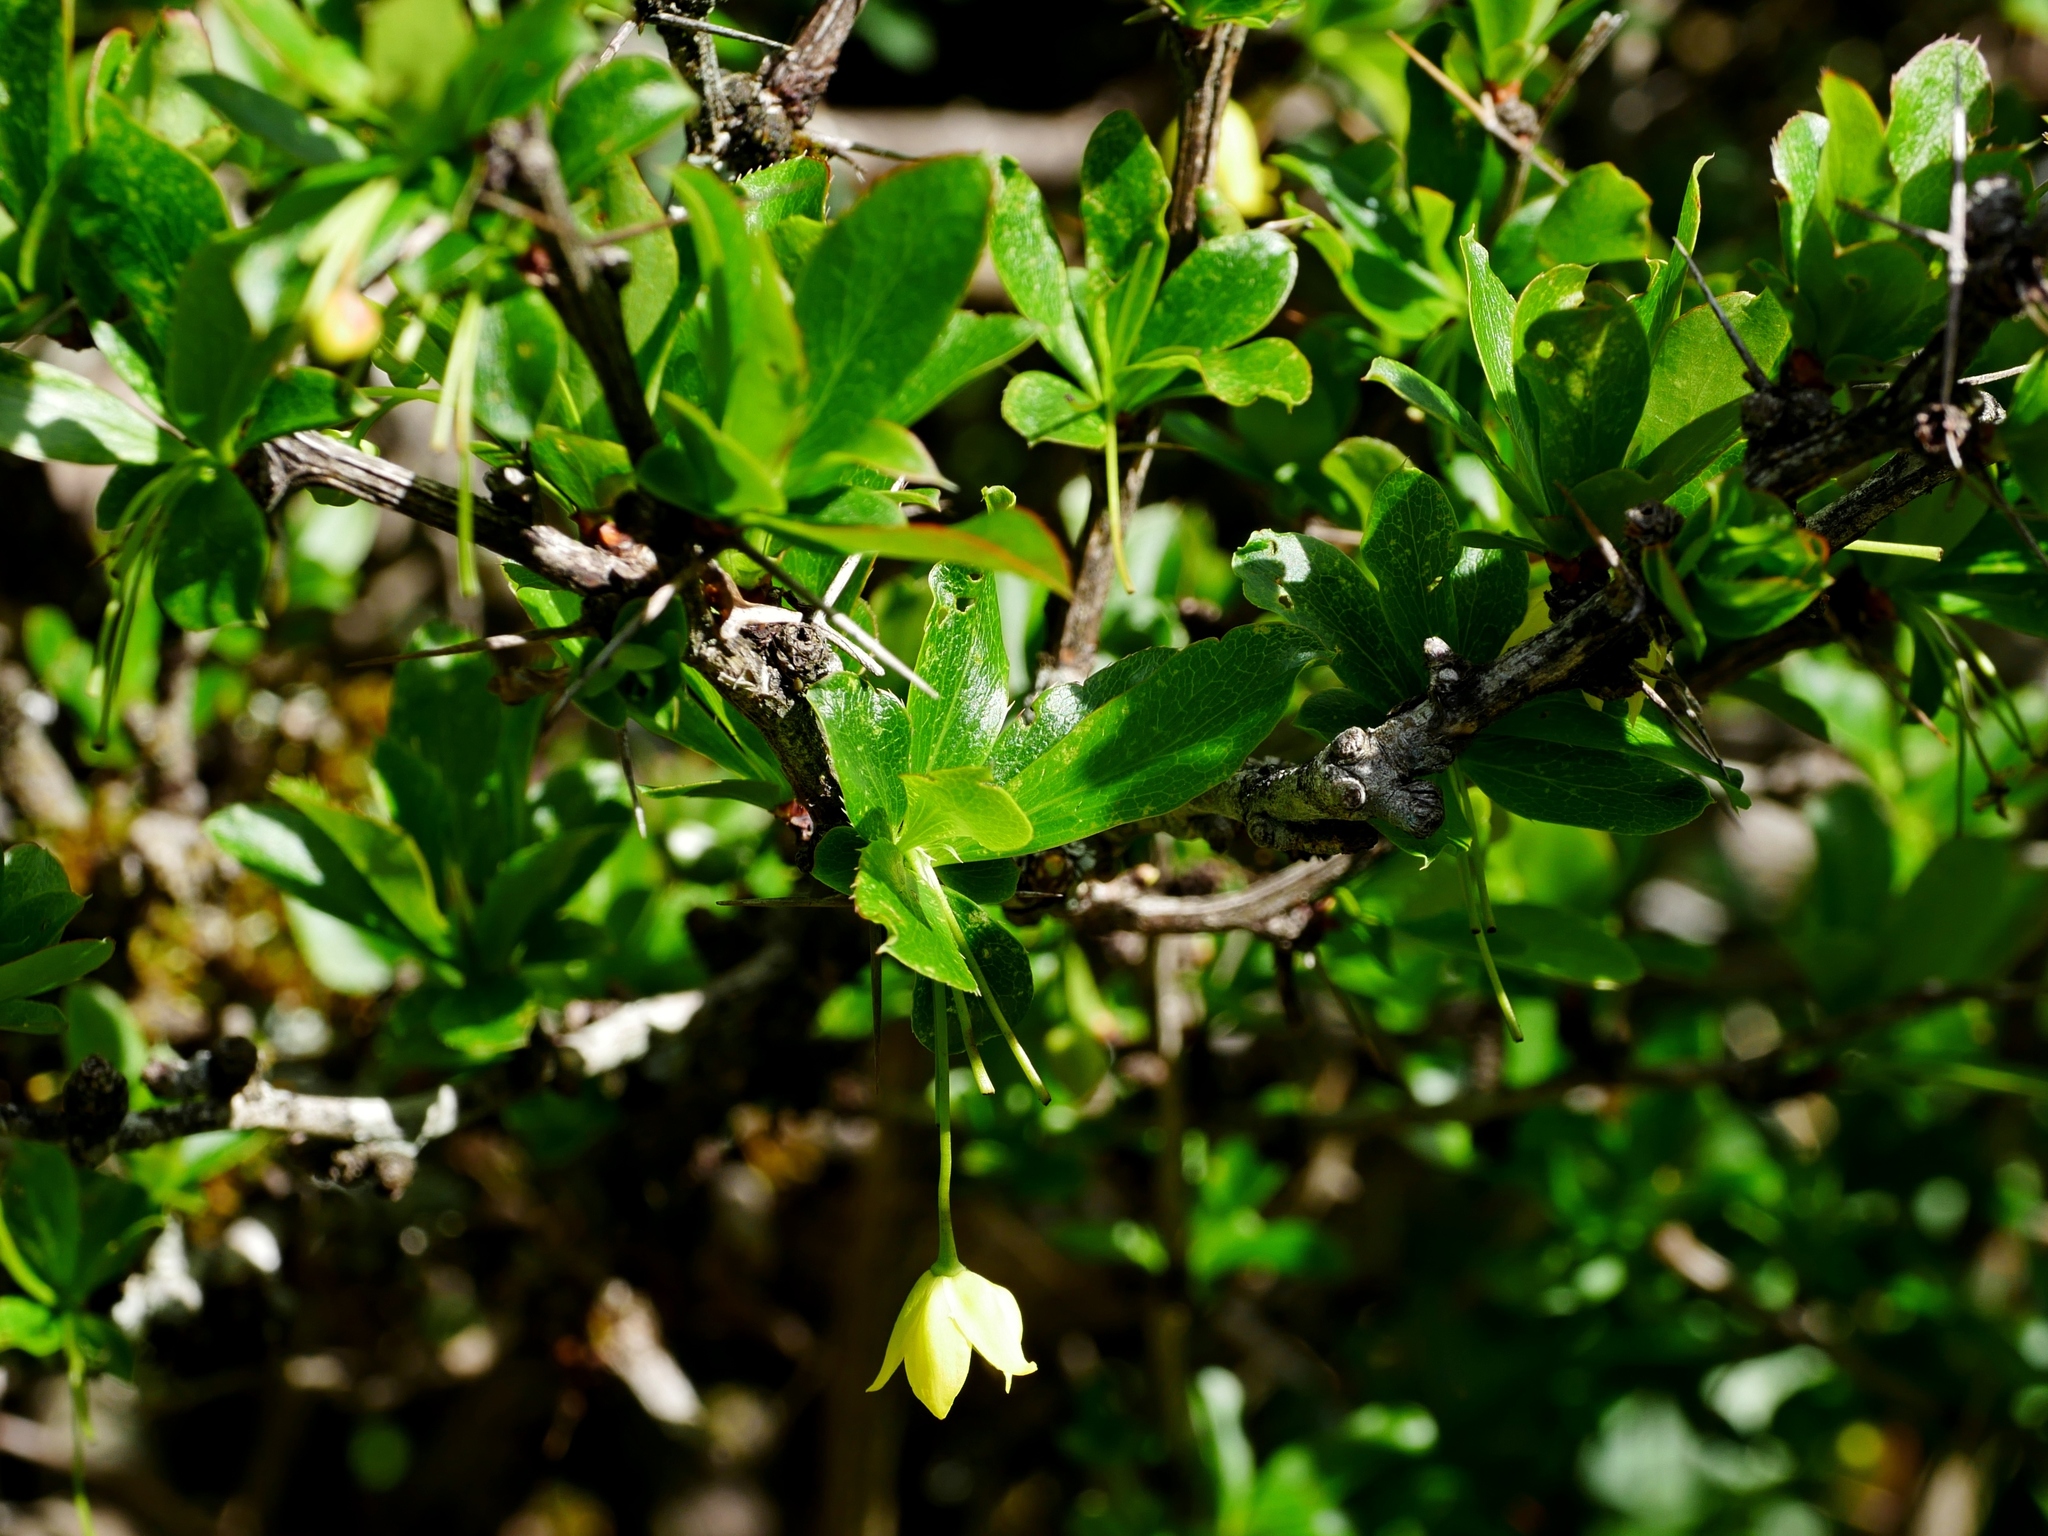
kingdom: Plantae
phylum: Tracheophyta
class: Magnoliopsida
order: Ranunculales
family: Berberidaceae
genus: Berberis
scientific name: Berberis morrisonensis
